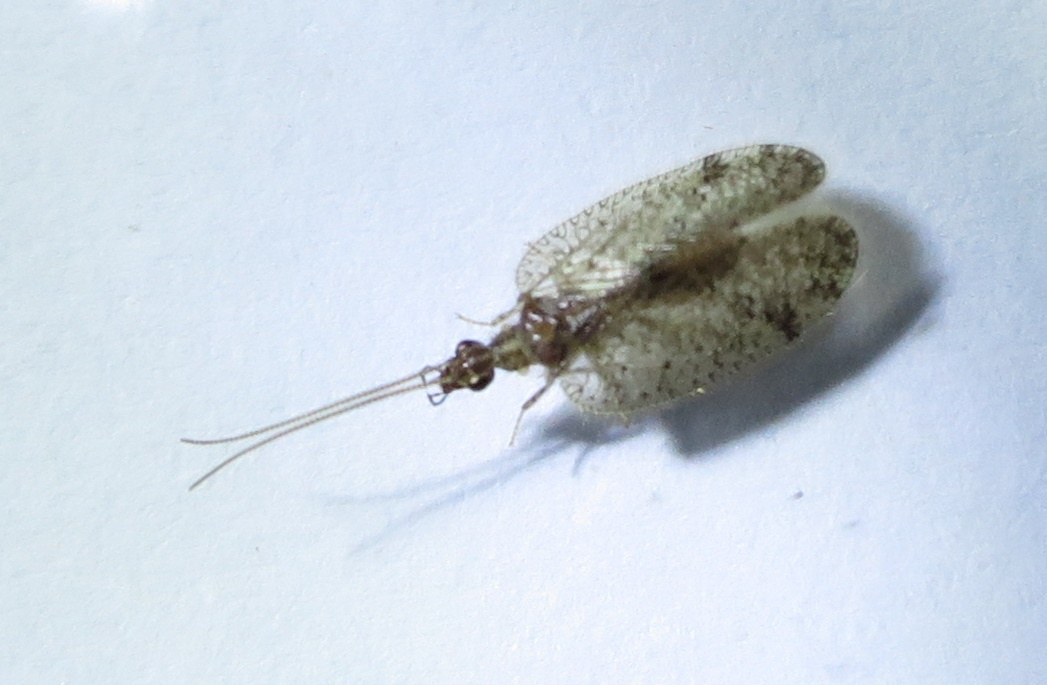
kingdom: Animalia
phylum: Arthropoda
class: Insecta
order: Neuroptera
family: Hemerobiidae
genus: Psectra
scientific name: Psectra nakaharai
